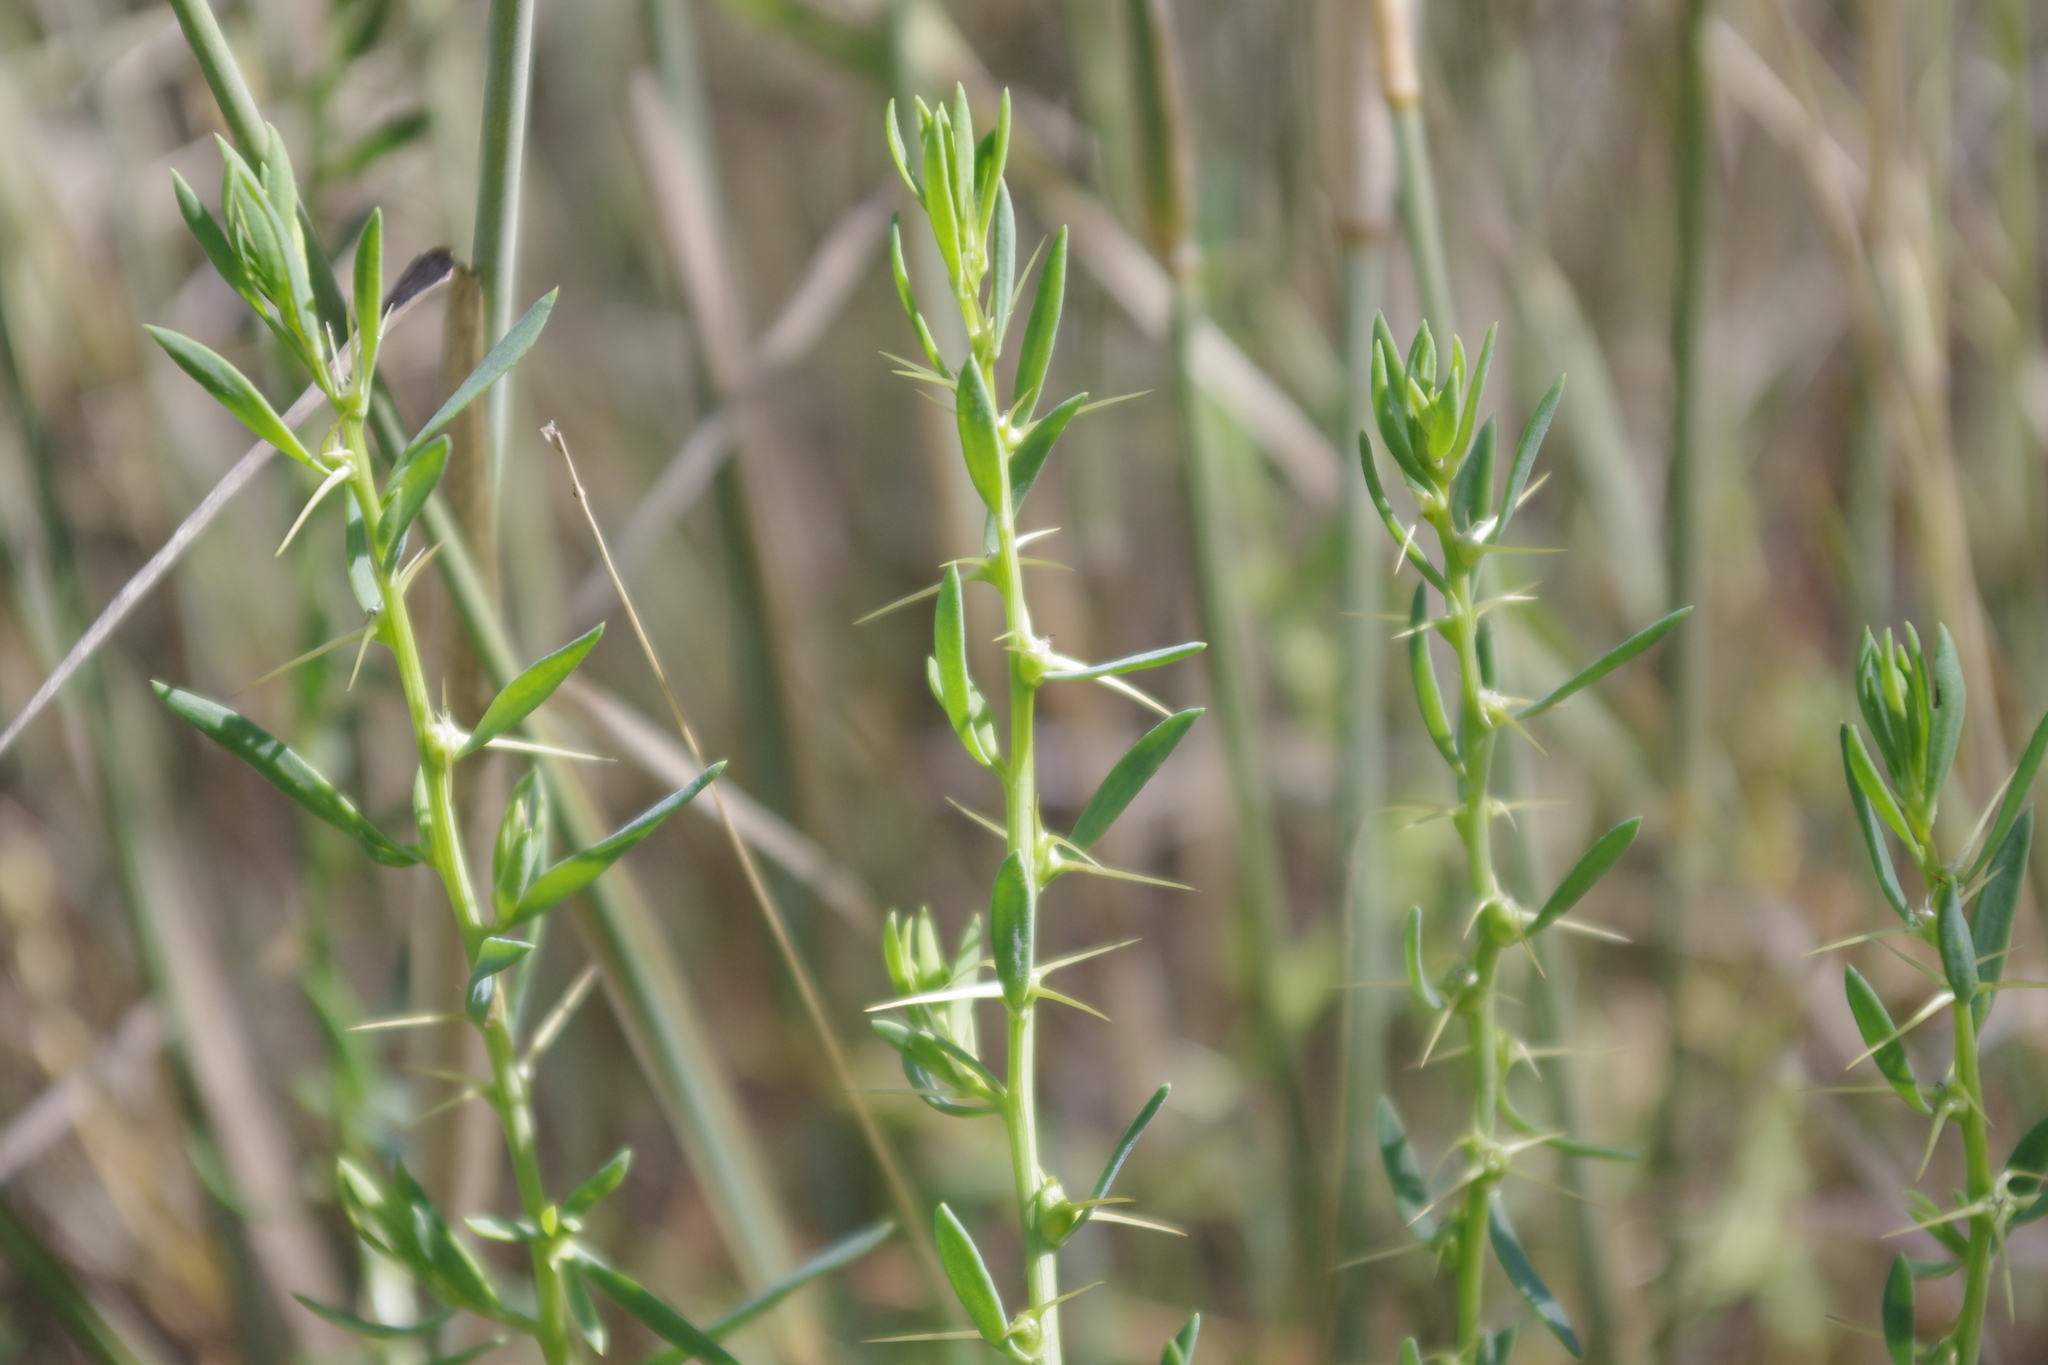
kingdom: Plantae
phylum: Tracheophyta
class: Magnoliopsida
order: Caryophyllales
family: Amaranthaceae
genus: Sclerolaena
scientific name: Sclerolaena muricata
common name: Roly-poly
